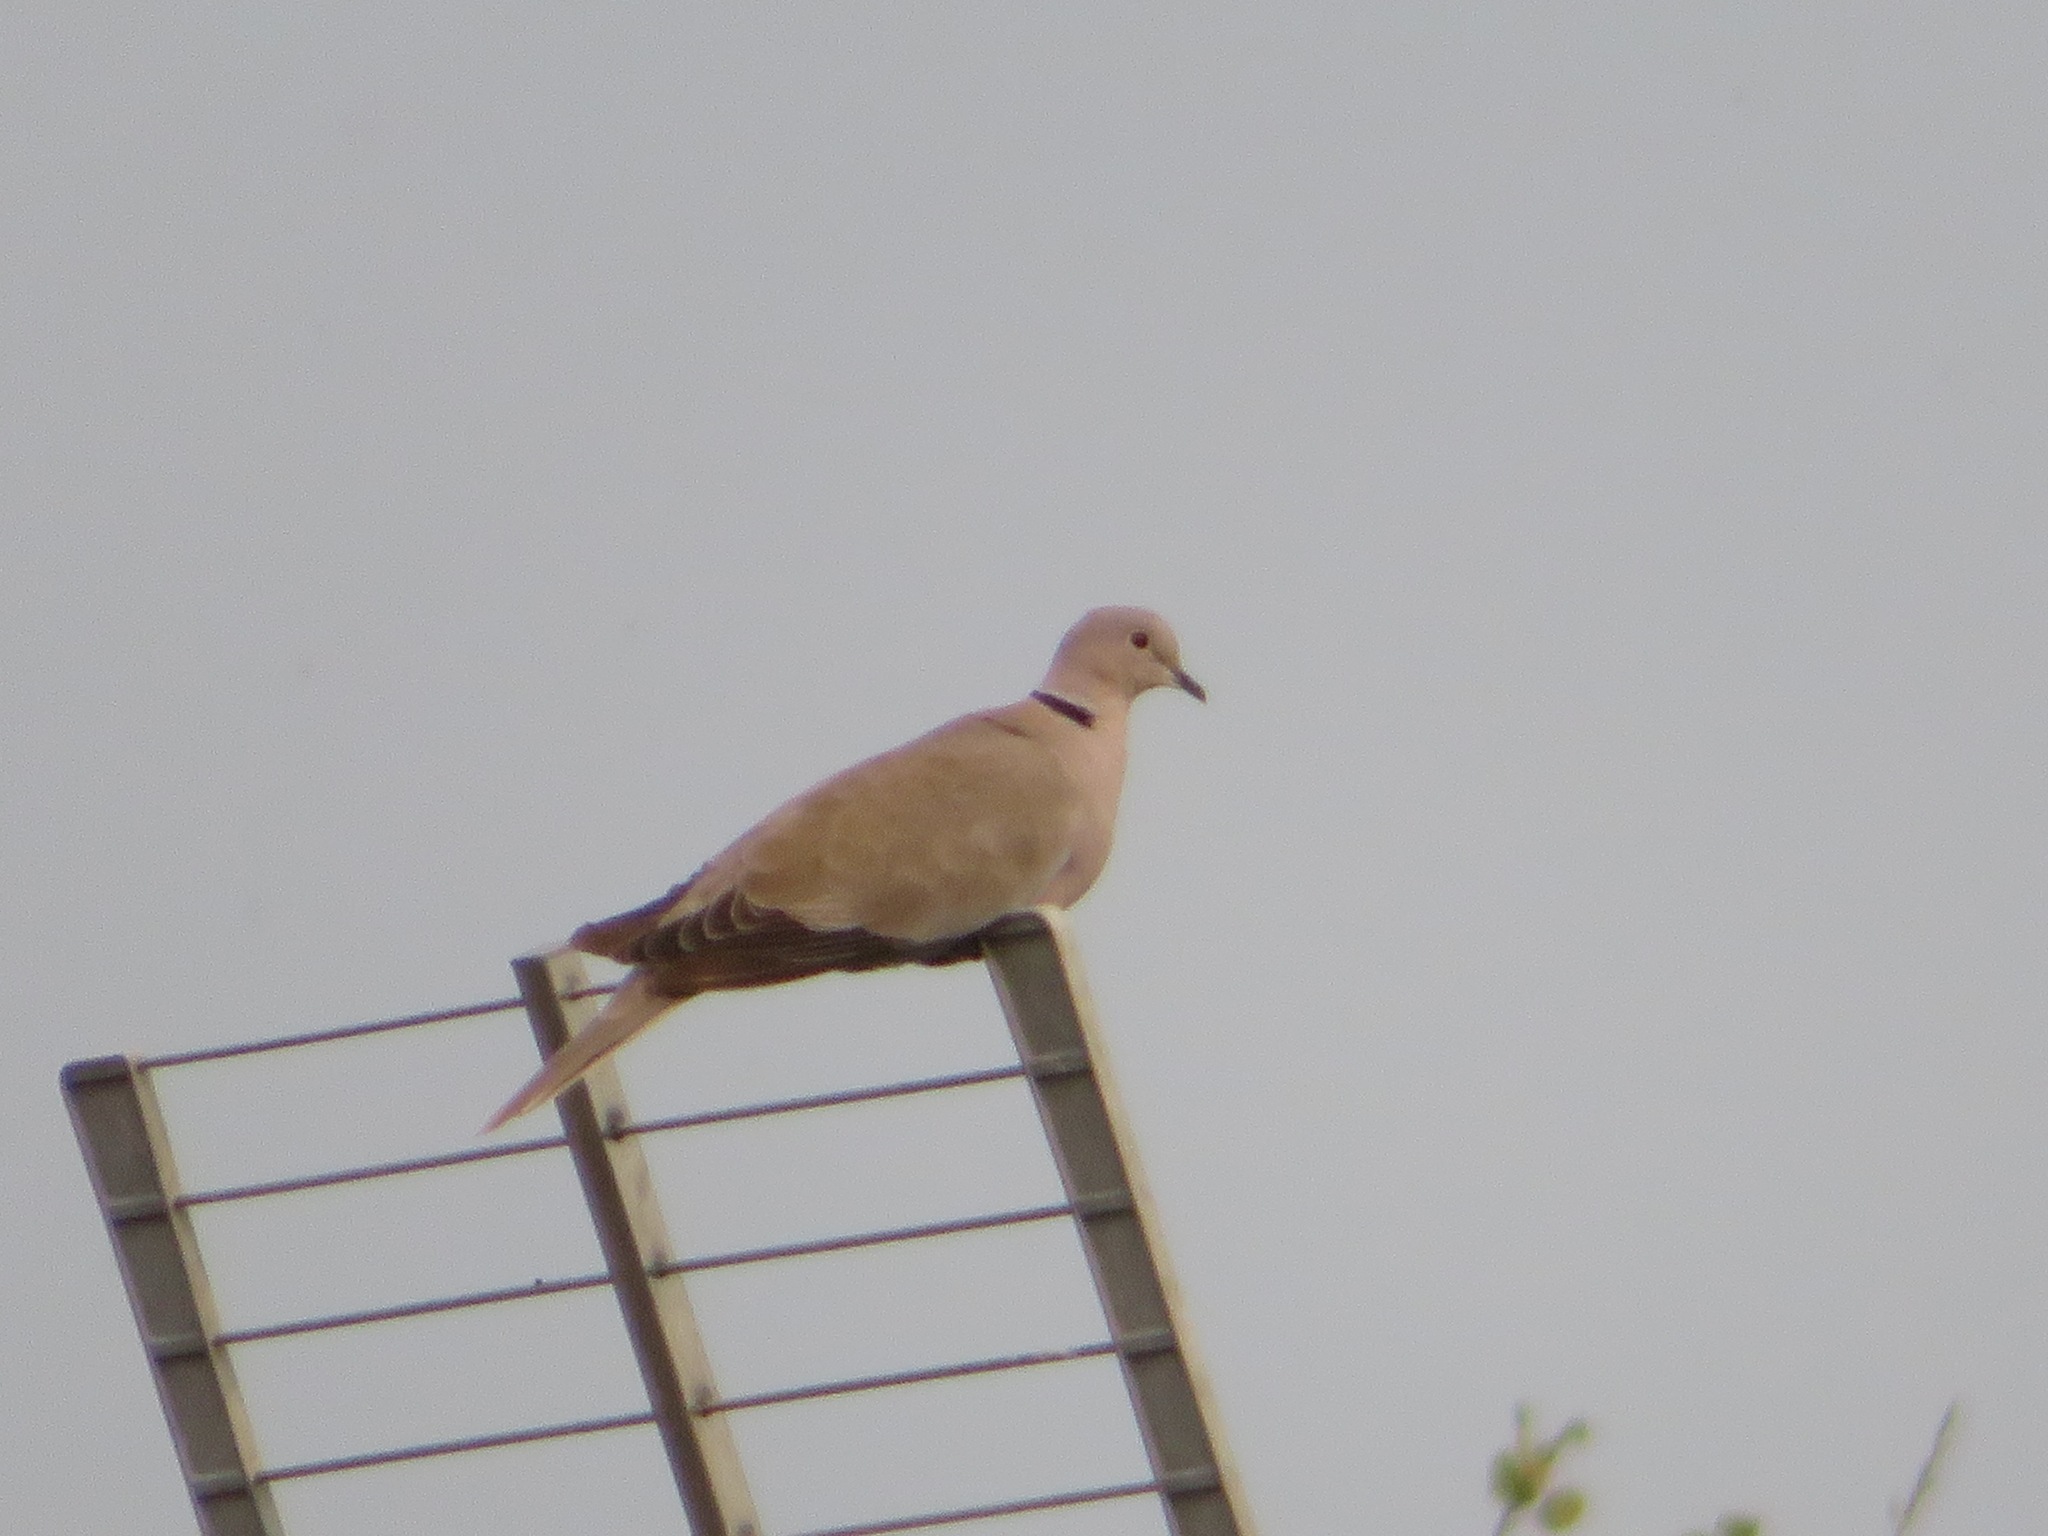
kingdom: Animalia
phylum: Chordata
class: Aves
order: Columbiformes
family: Columbidae
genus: Streptopelia
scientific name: Streptopelia decaocto
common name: Eurasian collared dove
